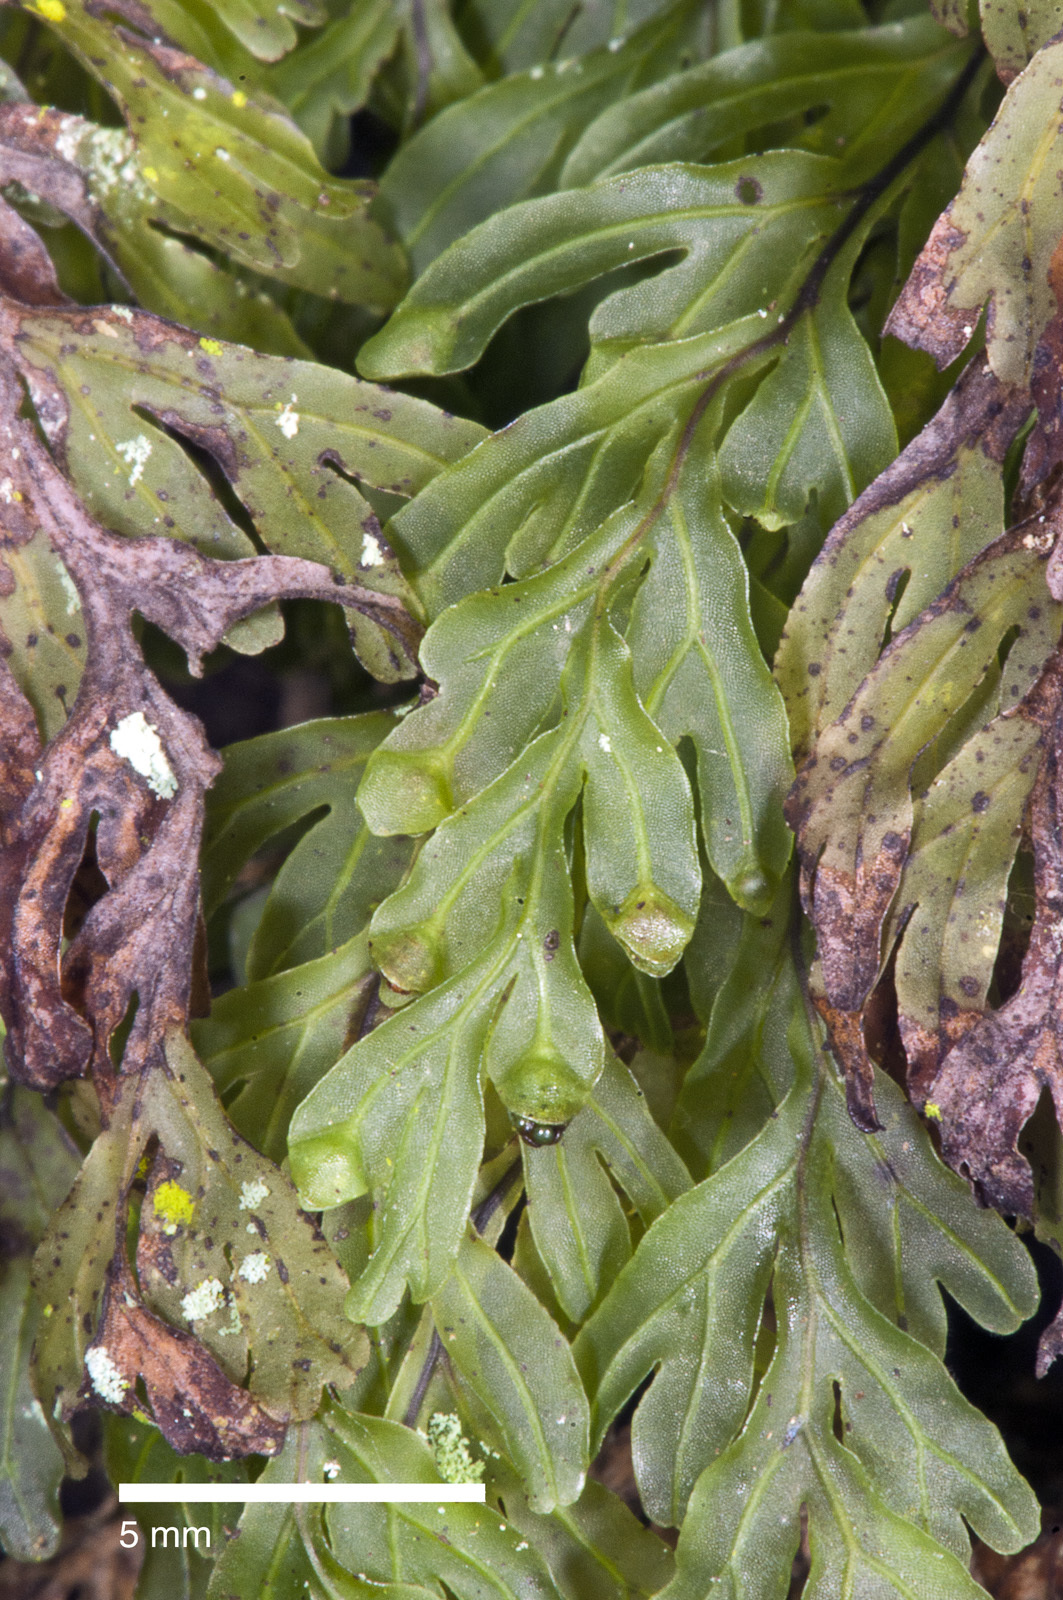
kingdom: Plantae
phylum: Tracheophyta
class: Polypodiopsida
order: Hymenophyllales
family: Hymenophyllaceae
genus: Hymenophyllum
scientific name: Hymenophyllum rarum
